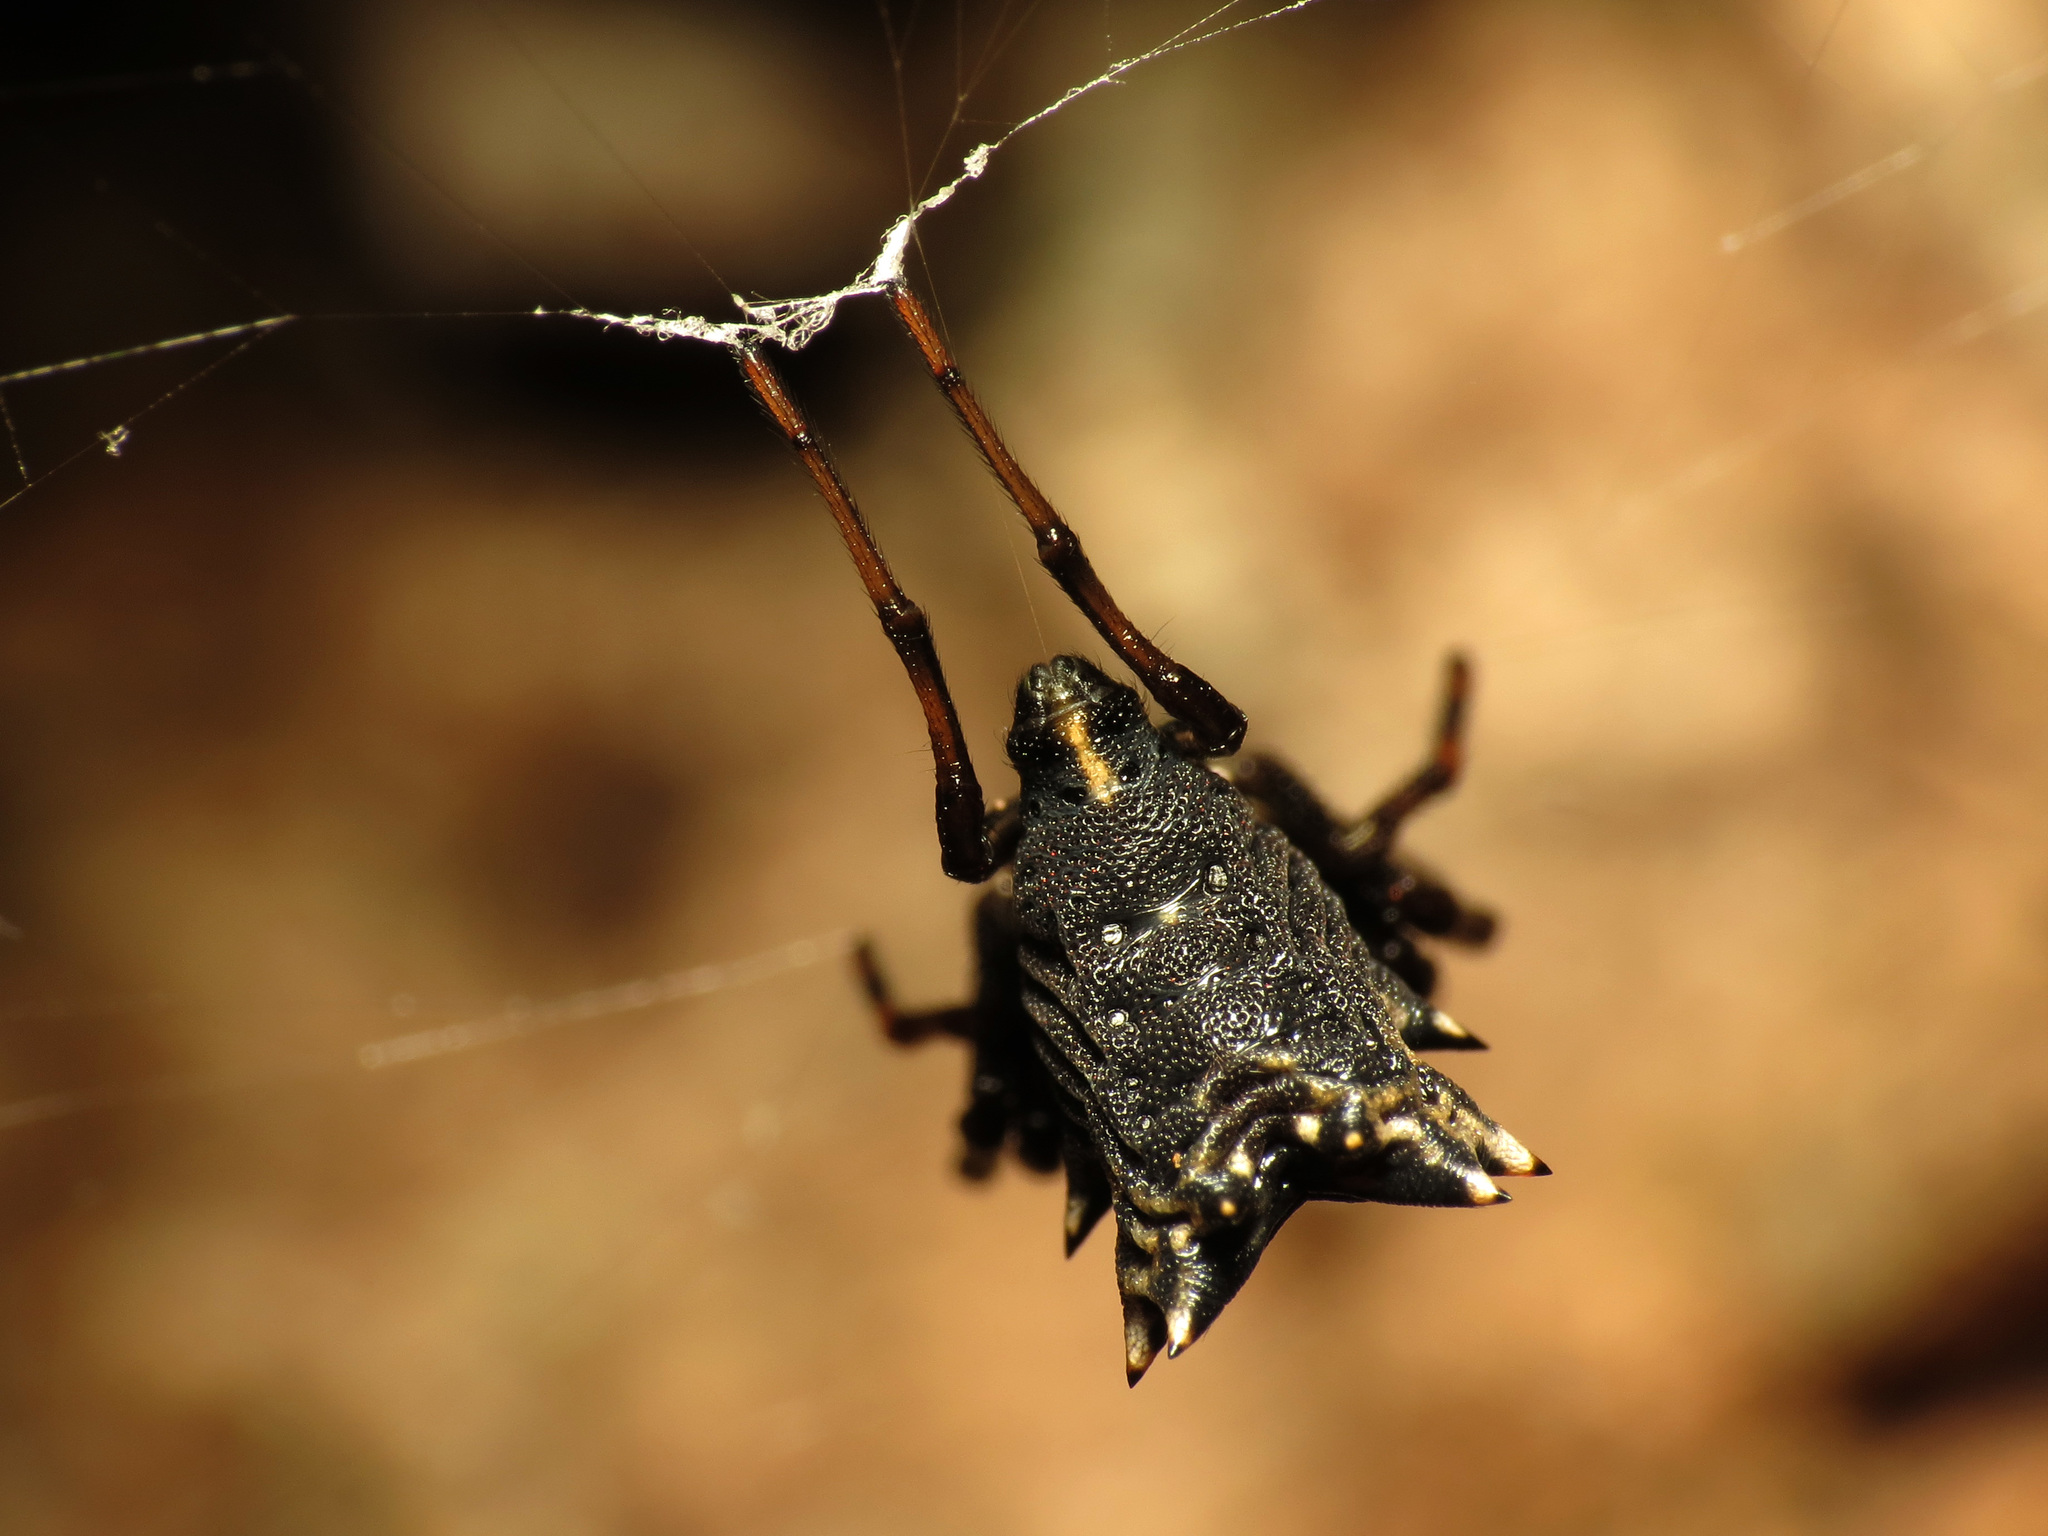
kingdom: Animalia
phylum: Arthropoda
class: Arachnida
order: Araneae
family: Araneidae
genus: Micrathena
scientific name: Micrathena gracilis
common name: Orb weavers
